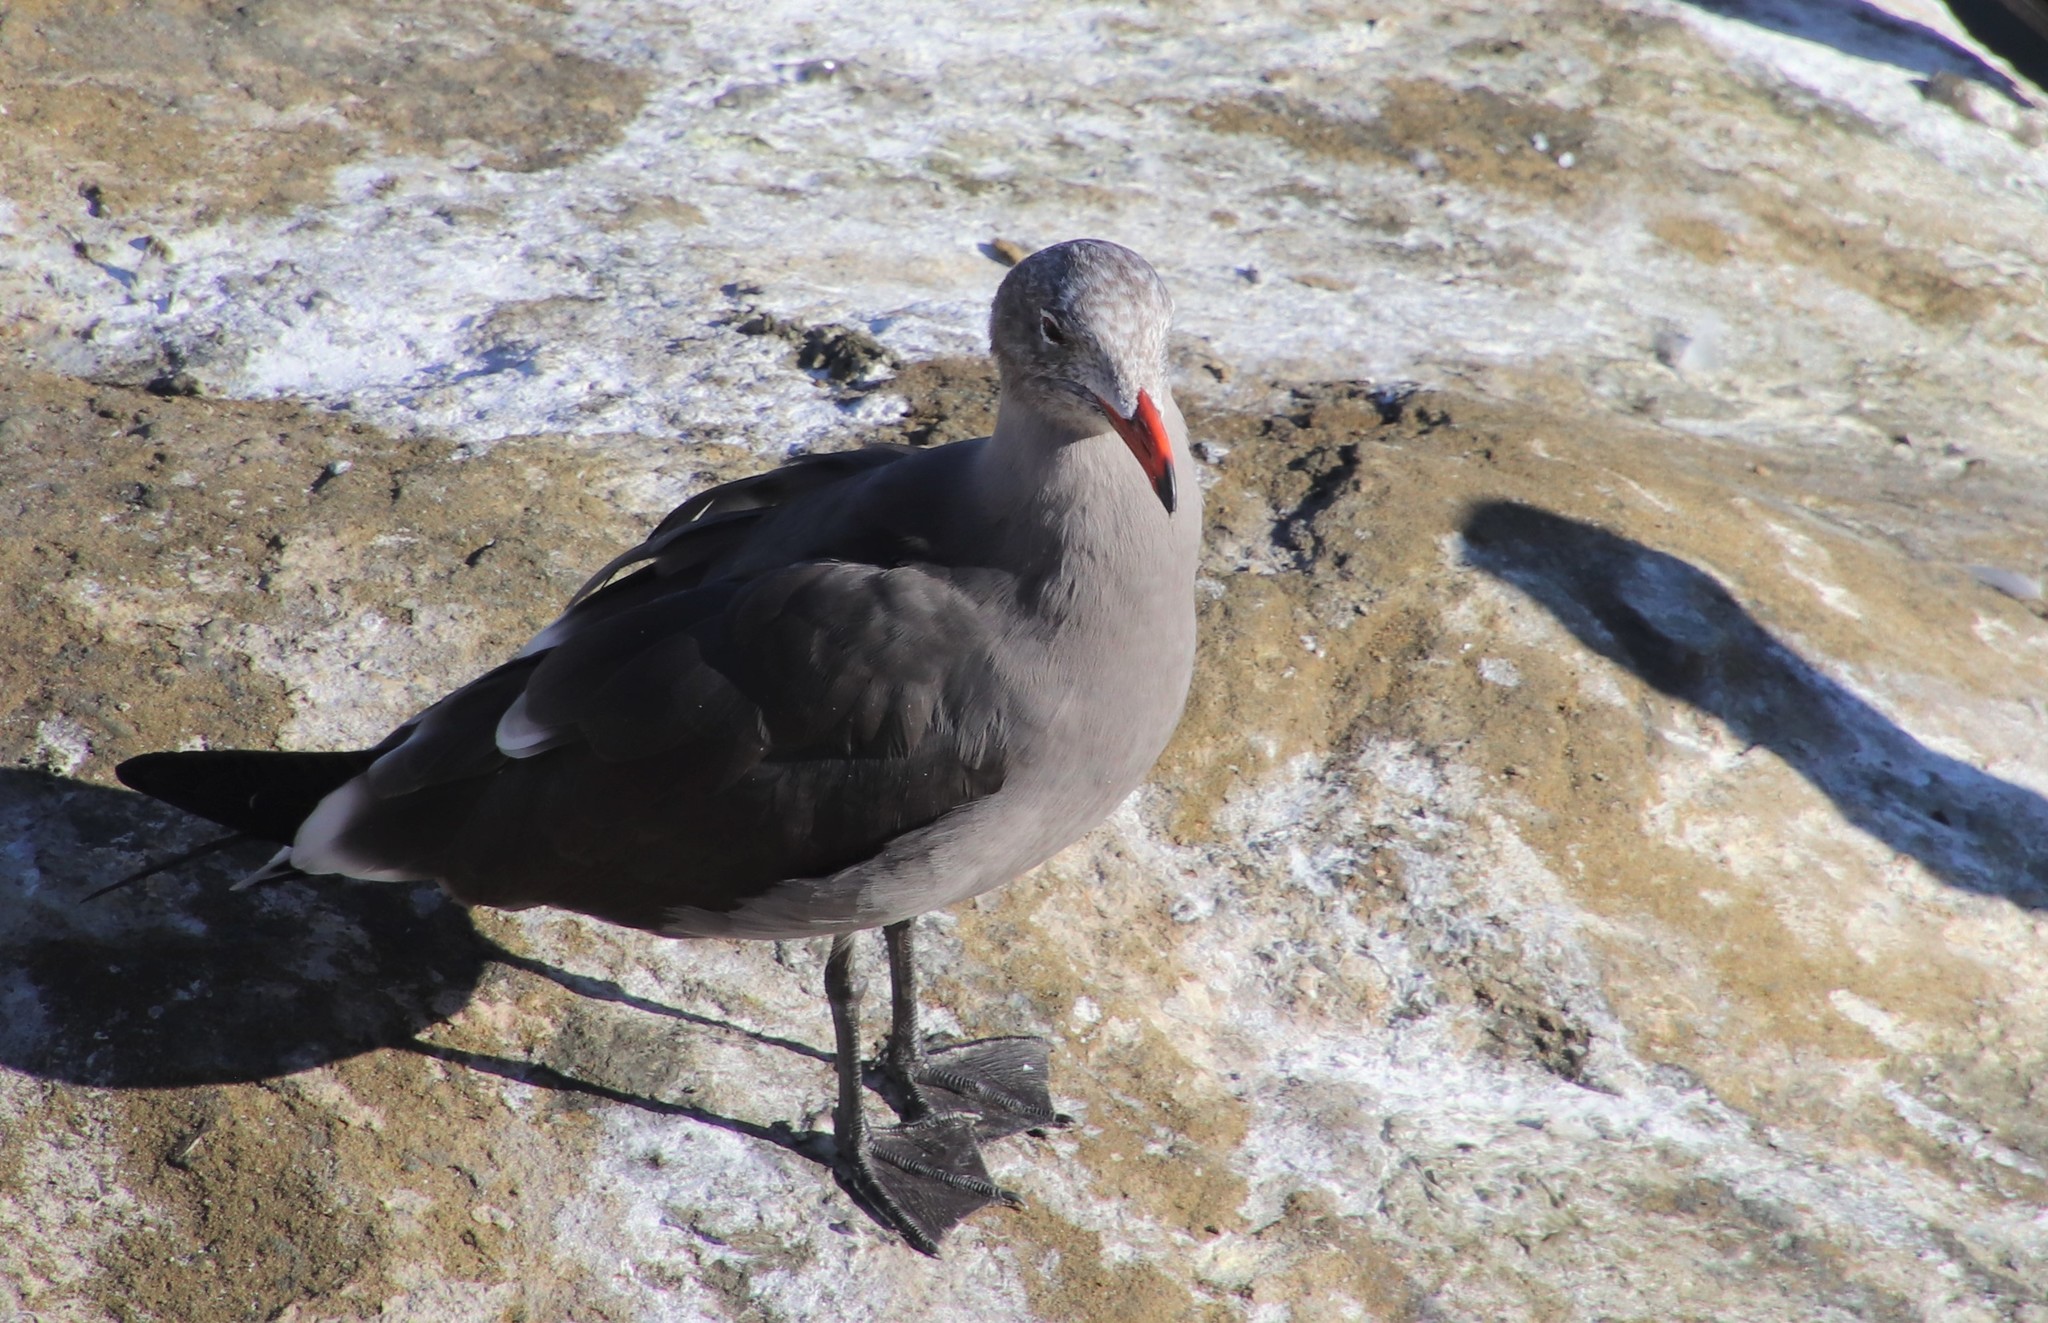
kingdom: Animalia
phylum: Chordata
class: Aves
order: Charadriiformes
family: Laridae
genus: Larus
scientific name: Larus heermanni
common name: Heermann's gull
